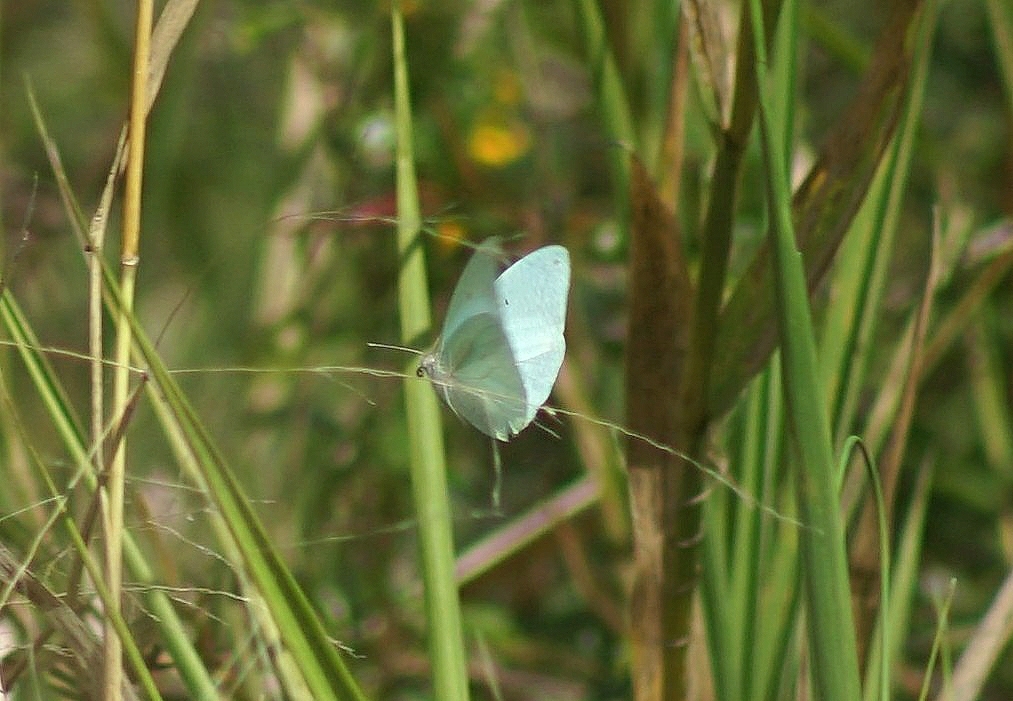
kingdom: Animalia
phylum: Arthropoda
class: Insecta
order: Lepidoptera
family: Pieridae
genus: Catopsilia
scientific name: Catopsilia florella
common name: African migrant
